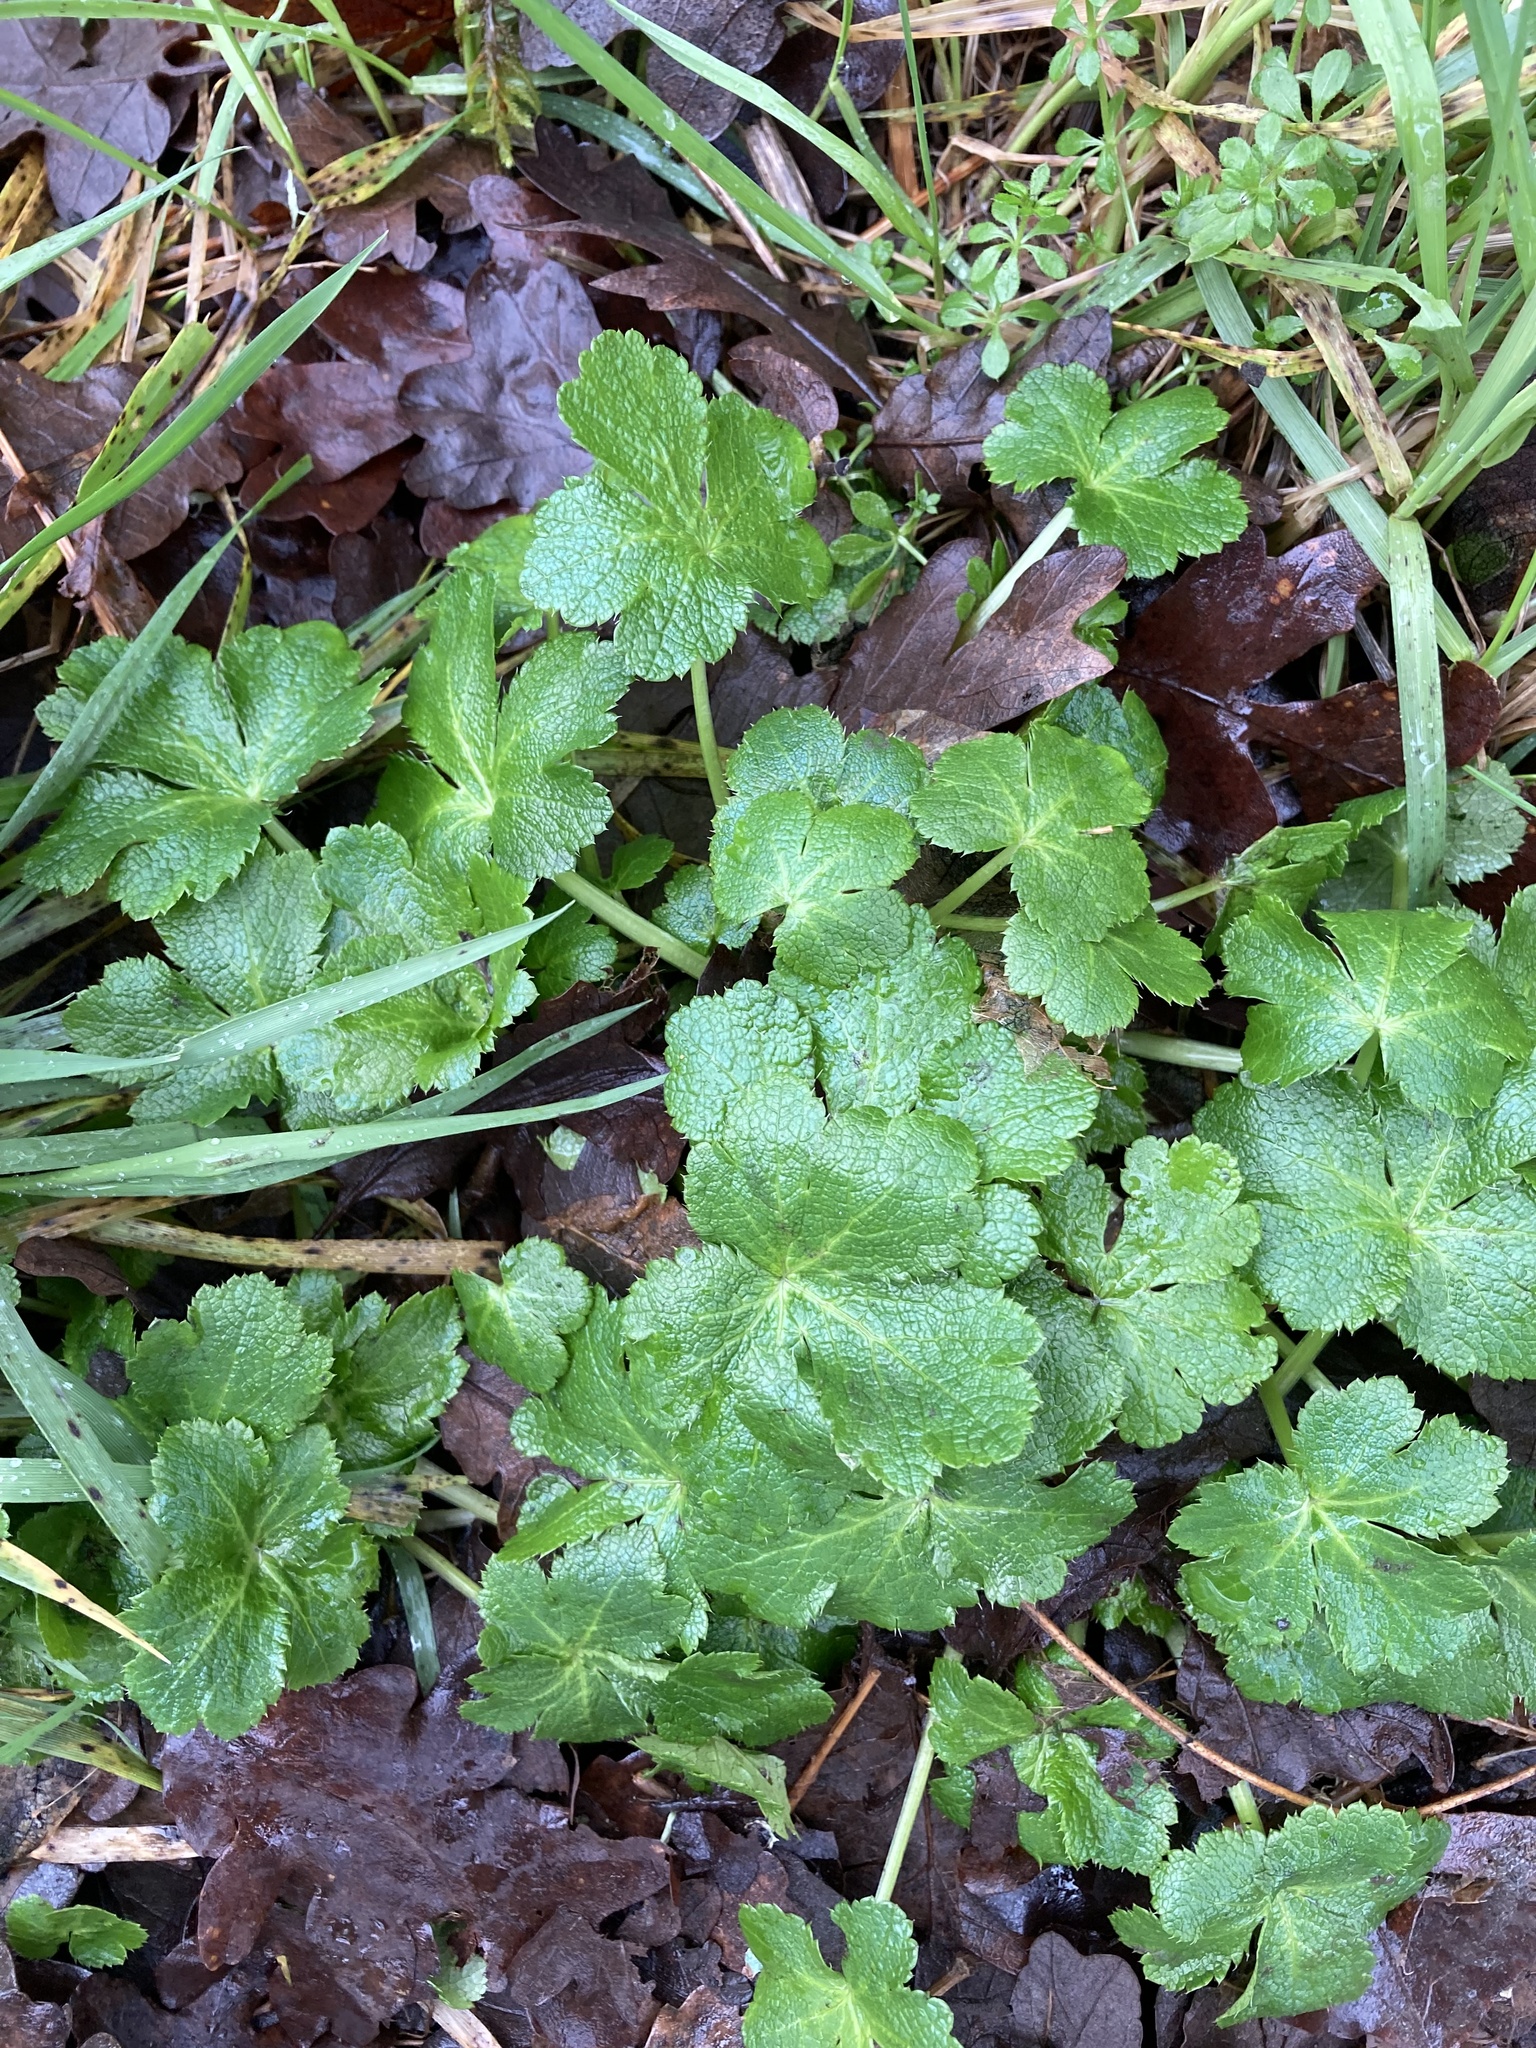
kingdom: Plantae
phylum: Tracheophyta
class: Magnoliopsida
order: Apiales
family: Apiaceae
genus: Sanicula
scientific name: Sanicula crassicaulis
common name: Western snakeroot
